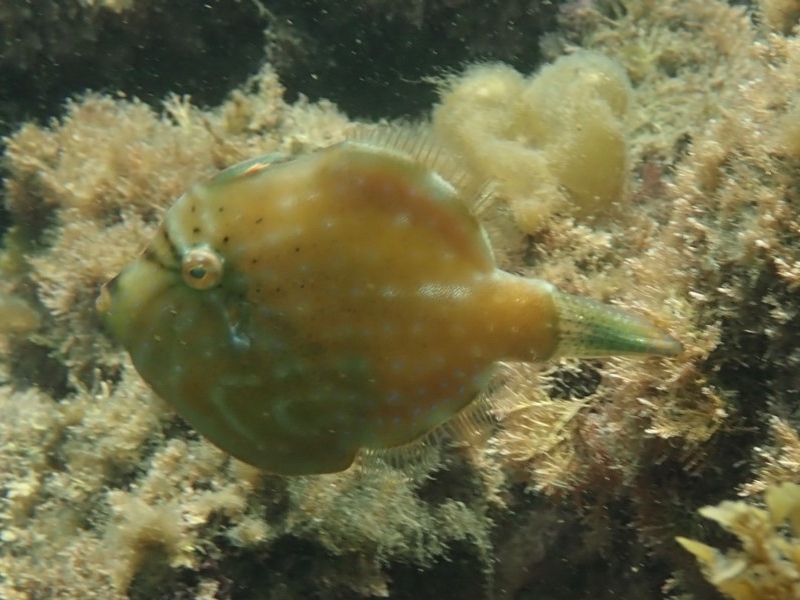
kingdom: Animalia
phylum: Chordata
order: Tetraodontiformes
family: Monacanthidae
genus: Brachaluteres
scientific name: Brachaluteres jacksonianus
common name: Pigmy leatherjacket
